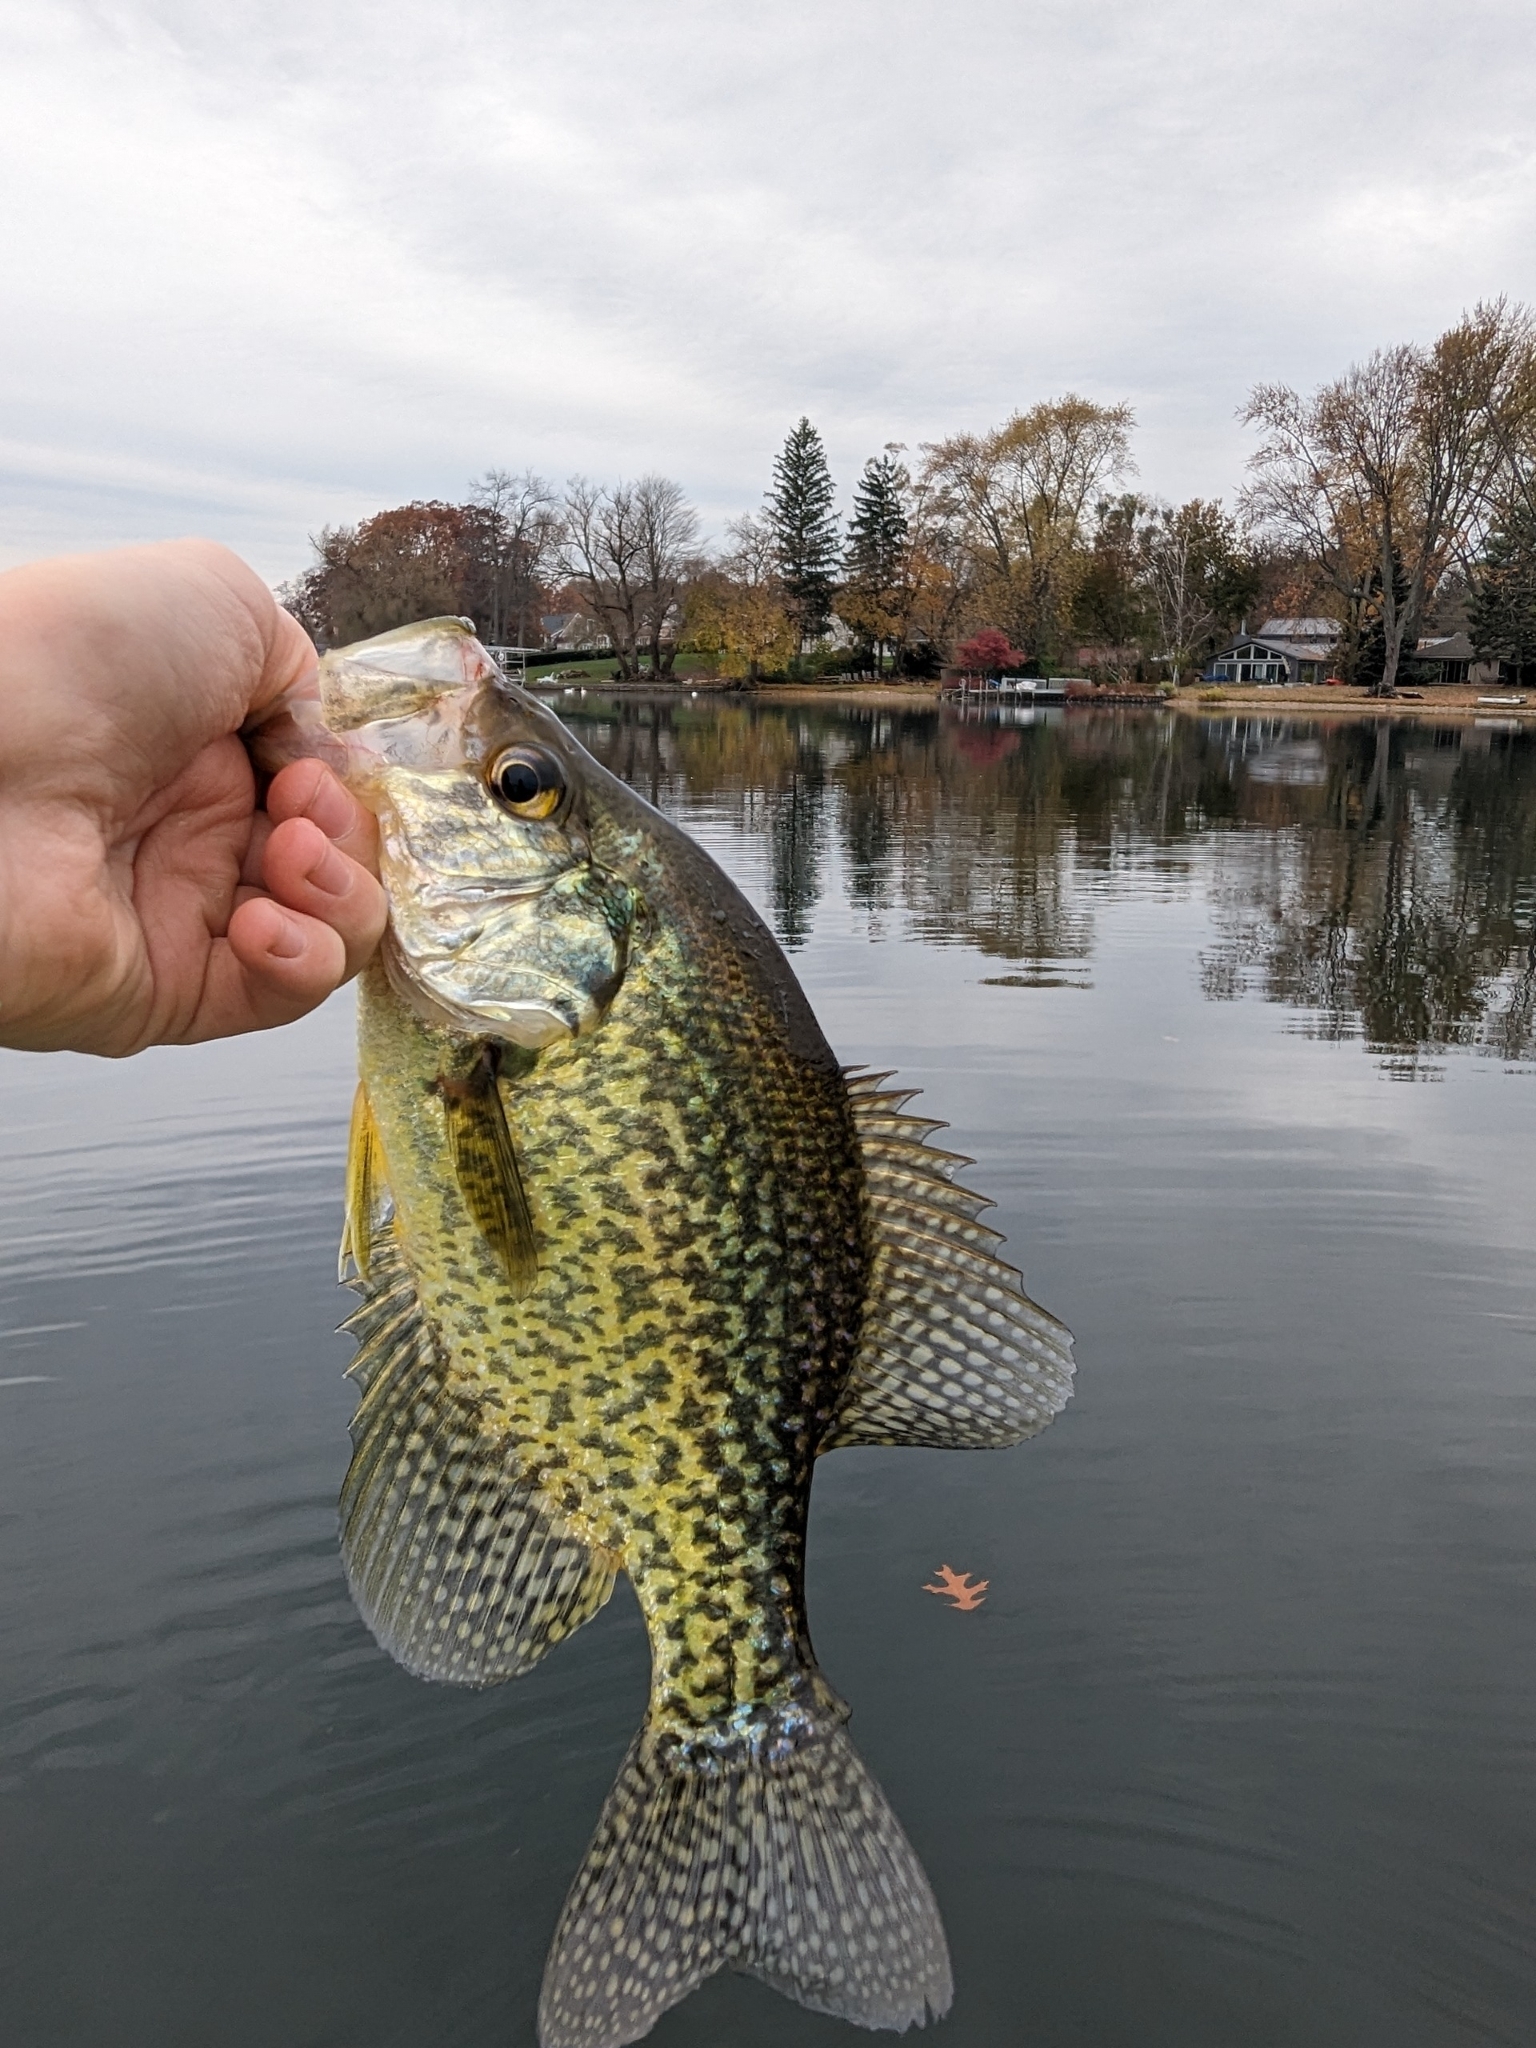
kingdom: Animalia
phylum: Chordata
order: Perciformes
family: Centrarchidae
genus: Pomoxis
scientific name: Pomoxis nigromaculatus
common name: Black crappie
